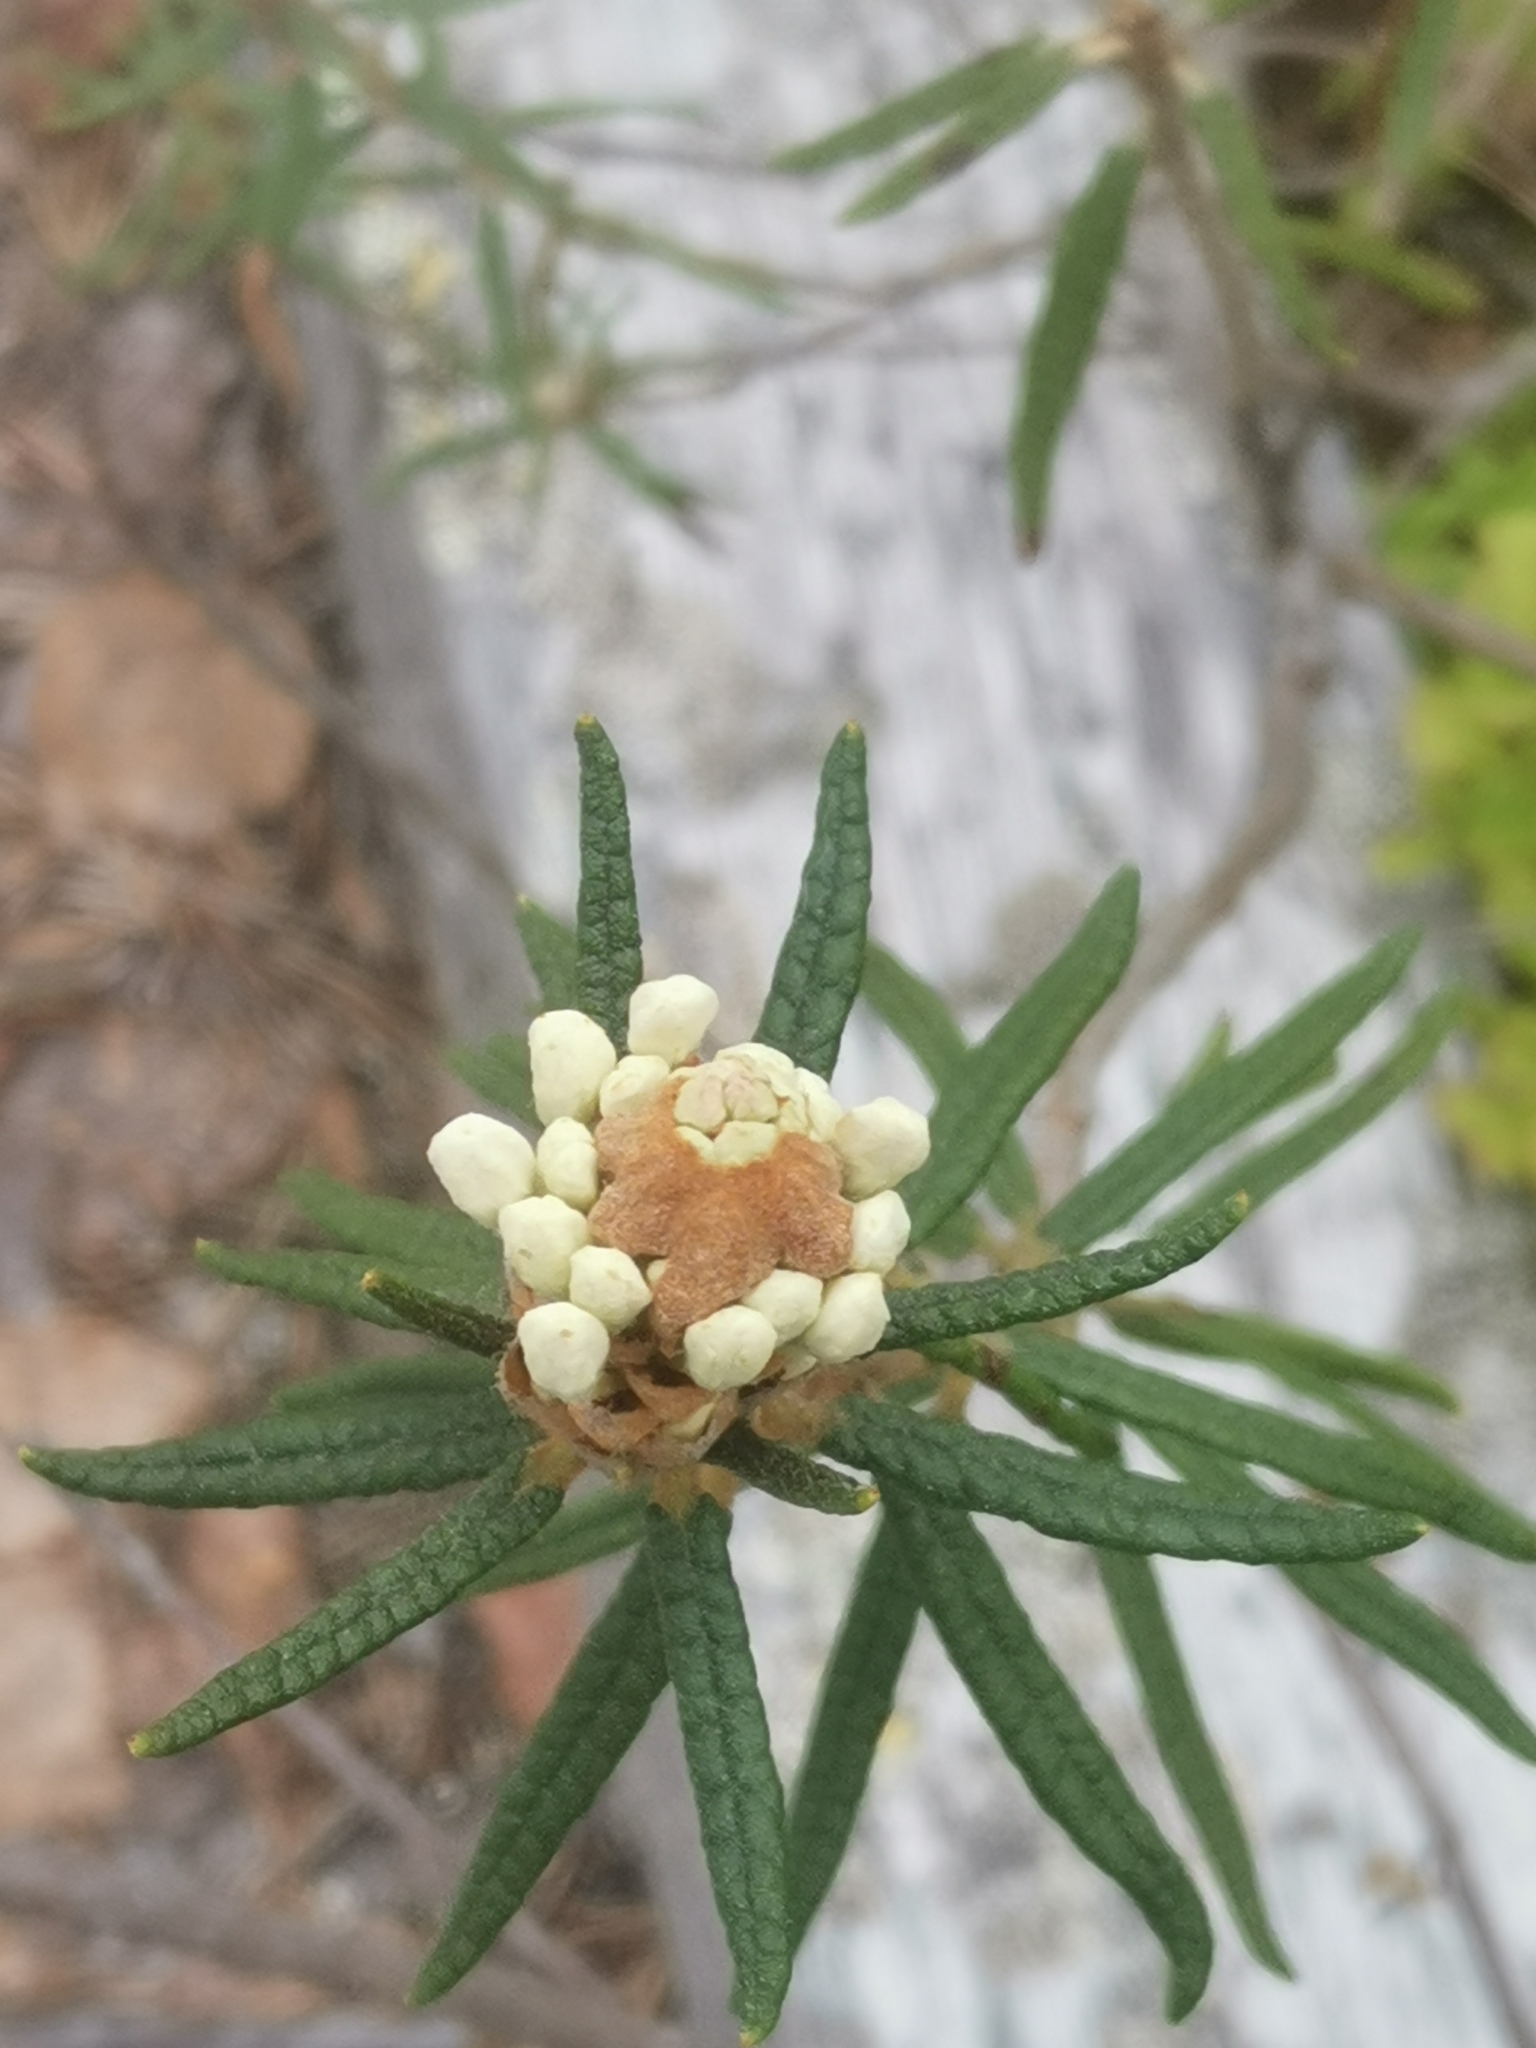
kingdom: Plantae
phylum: Tracheophyta
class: Magnoliopsida
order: Ericales
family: Ericaceae
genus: Rhododendron
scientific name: Rhododendron tomentosum
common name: Marsh labrador tea
